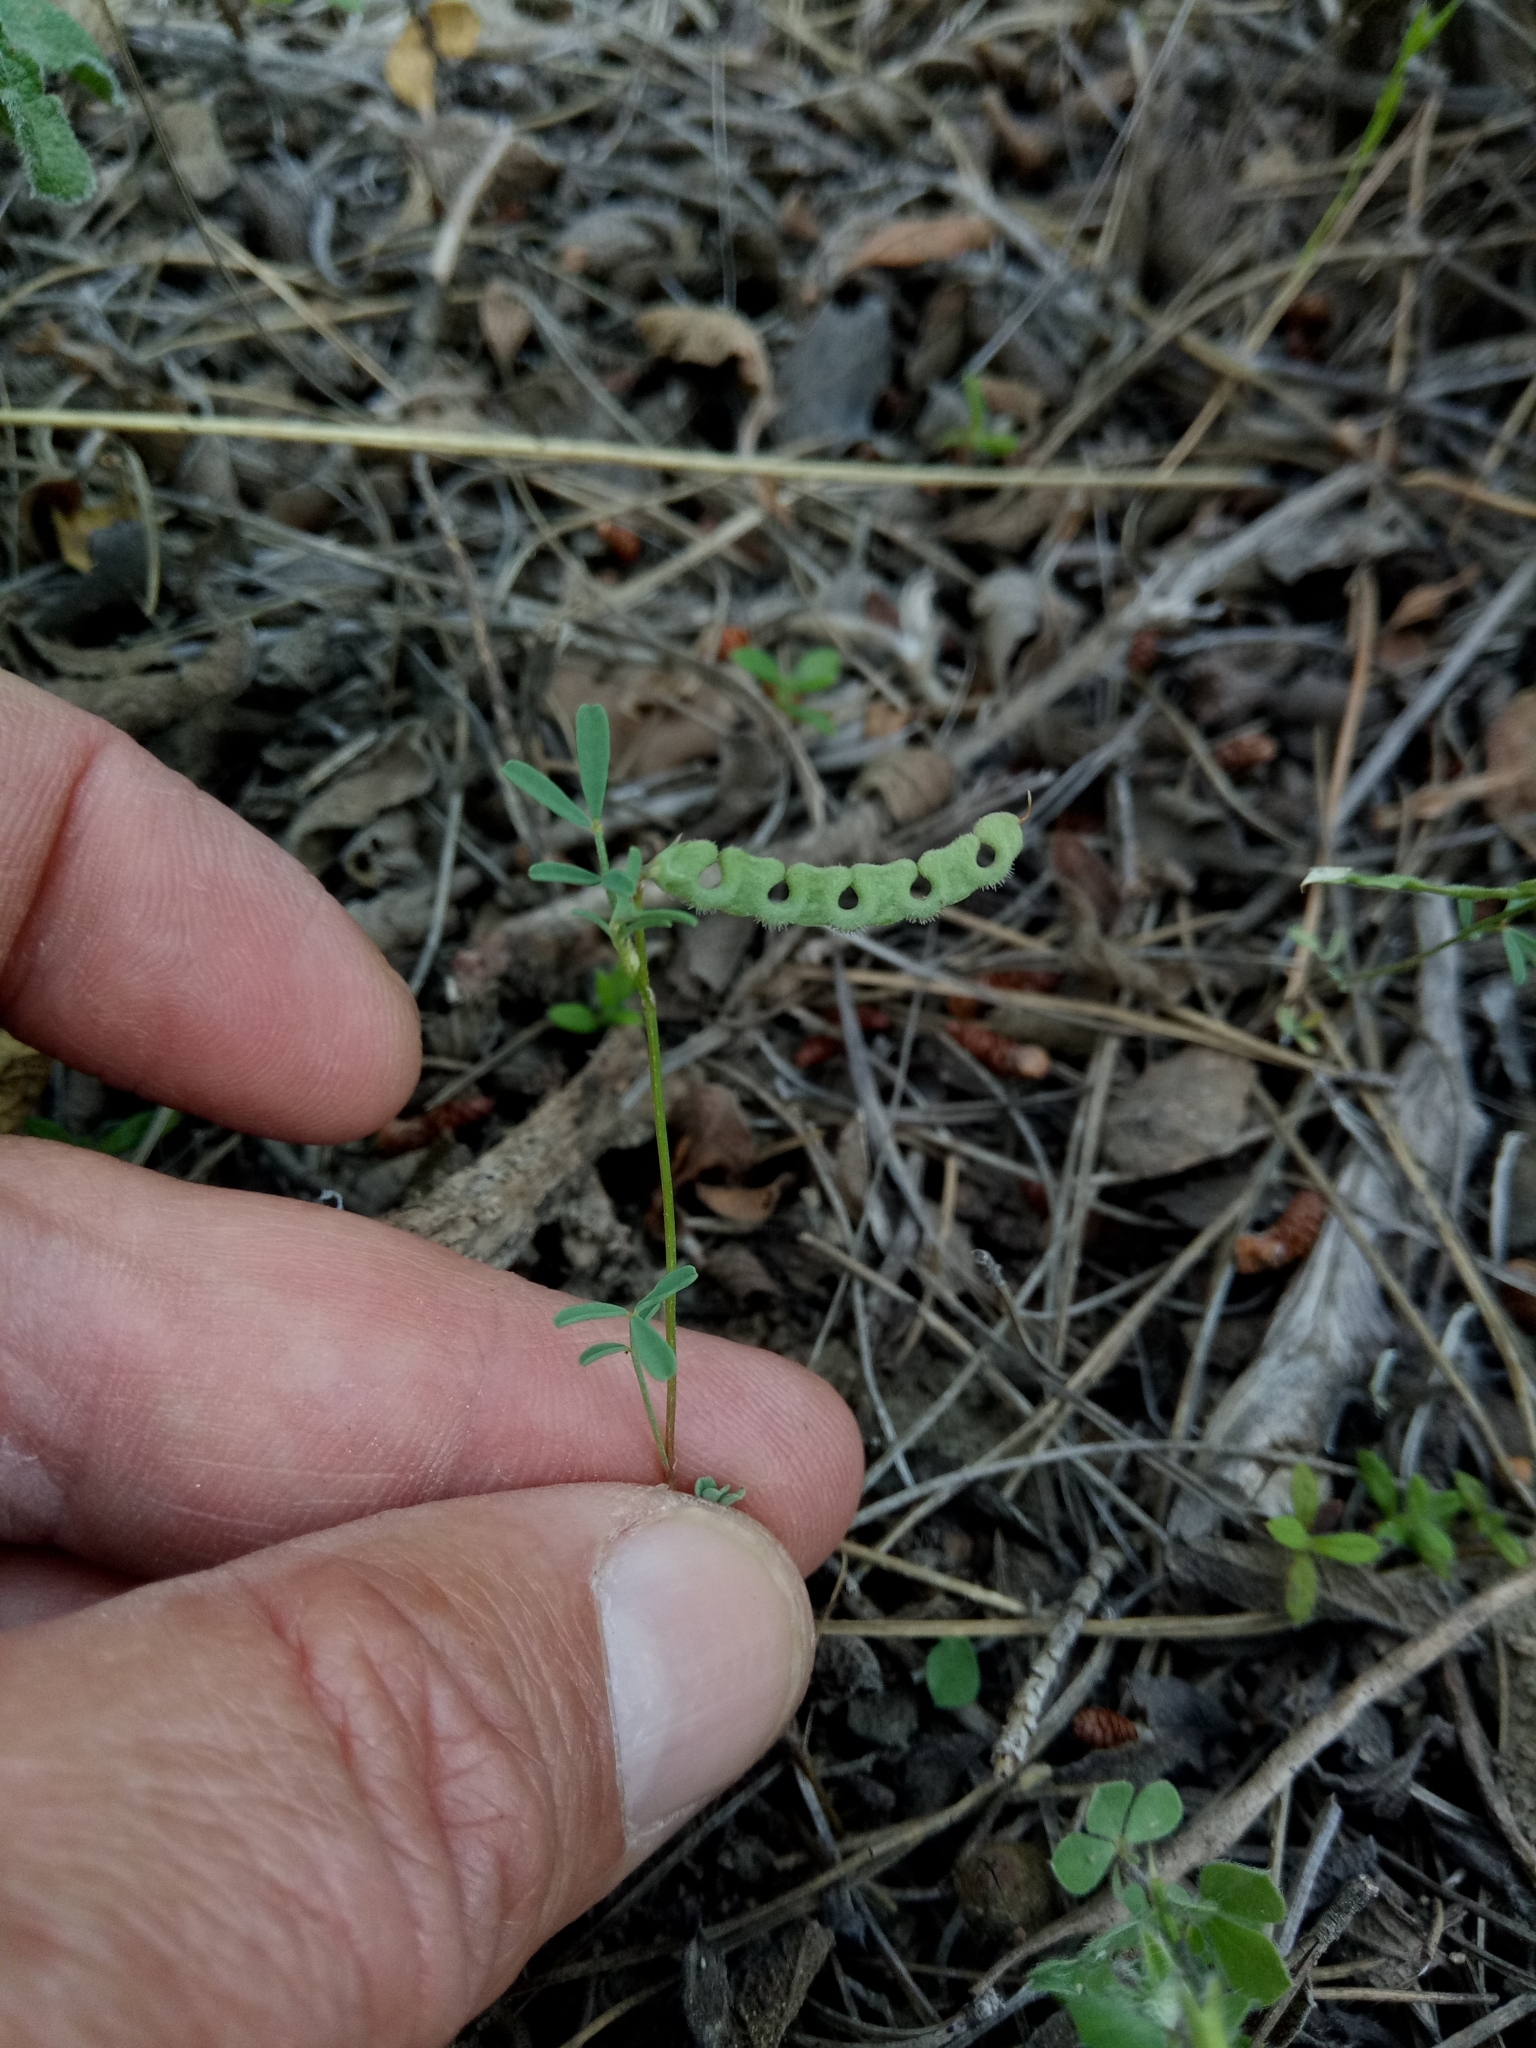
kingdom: Plantae
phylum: Tracheophyta
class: Magnoliopsida
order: Fabales
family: Fabaceae
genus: Hippocrepis
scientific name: Hippocrepis unisiliquosa
